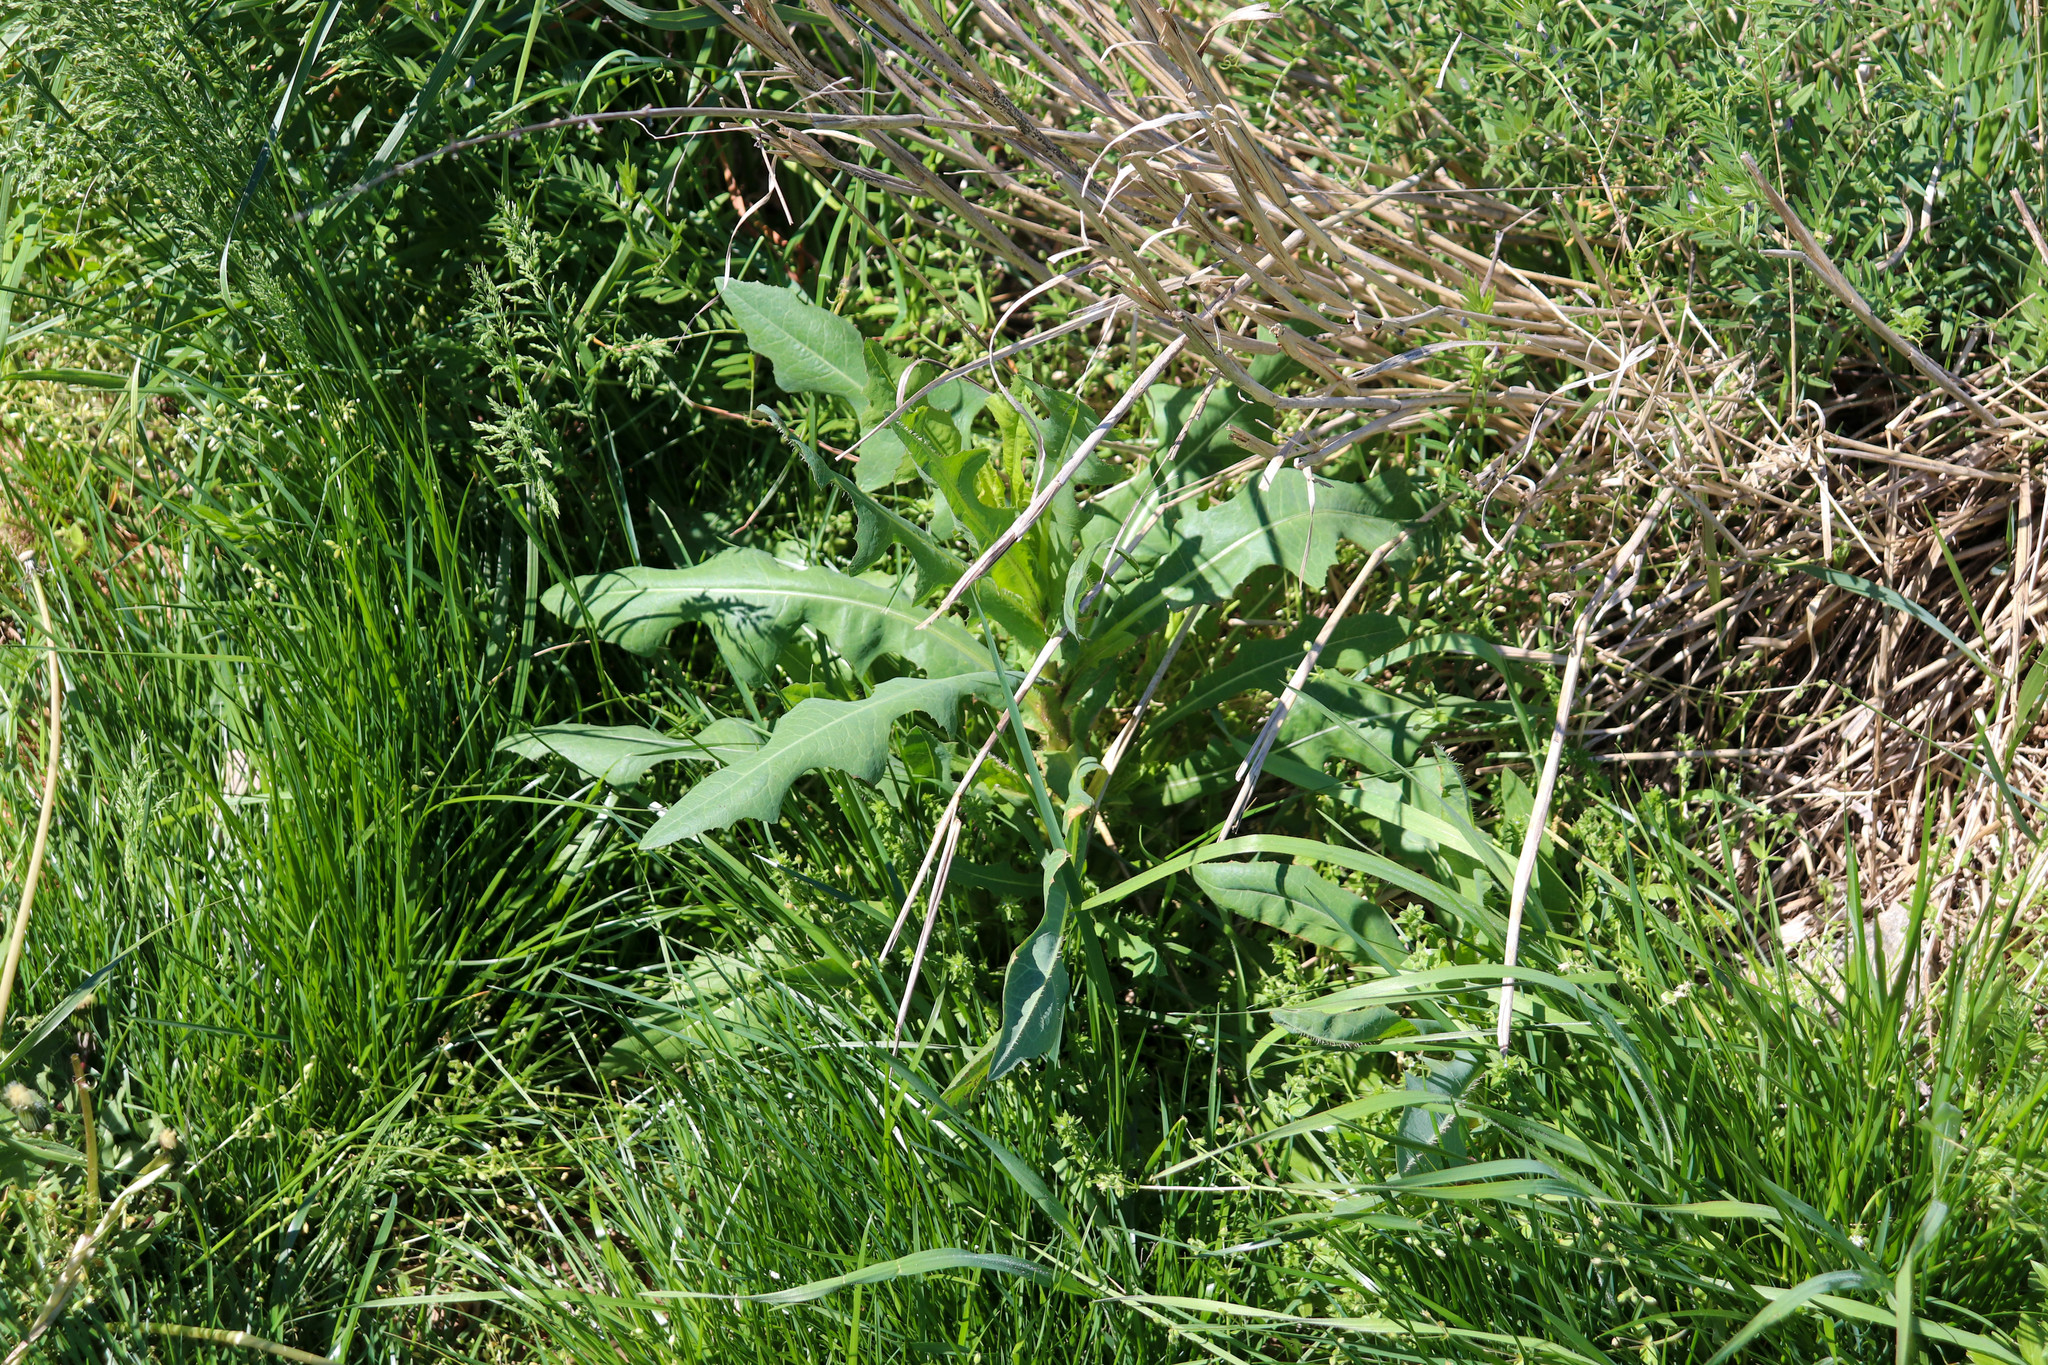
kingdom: Plantae
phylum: Tracheophyta
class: Magnoliopsida
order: Asterales
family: Asteraceae
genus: Lactuca
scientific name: Lactuca serriola
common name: Prickly lettuce
